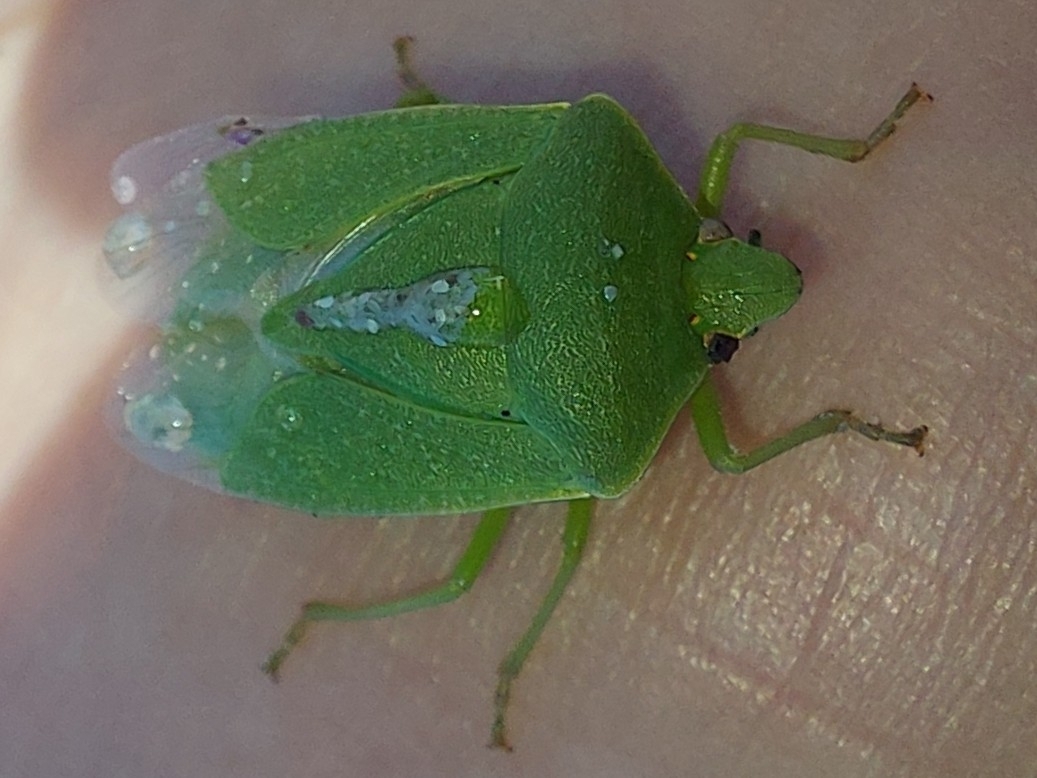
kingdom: Animalia
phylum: Arthropoda
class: Insecta
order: Hemiptera
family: Pentatomidae
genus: Nezara
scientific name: Nezara viridula
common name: Southern green stink bug
